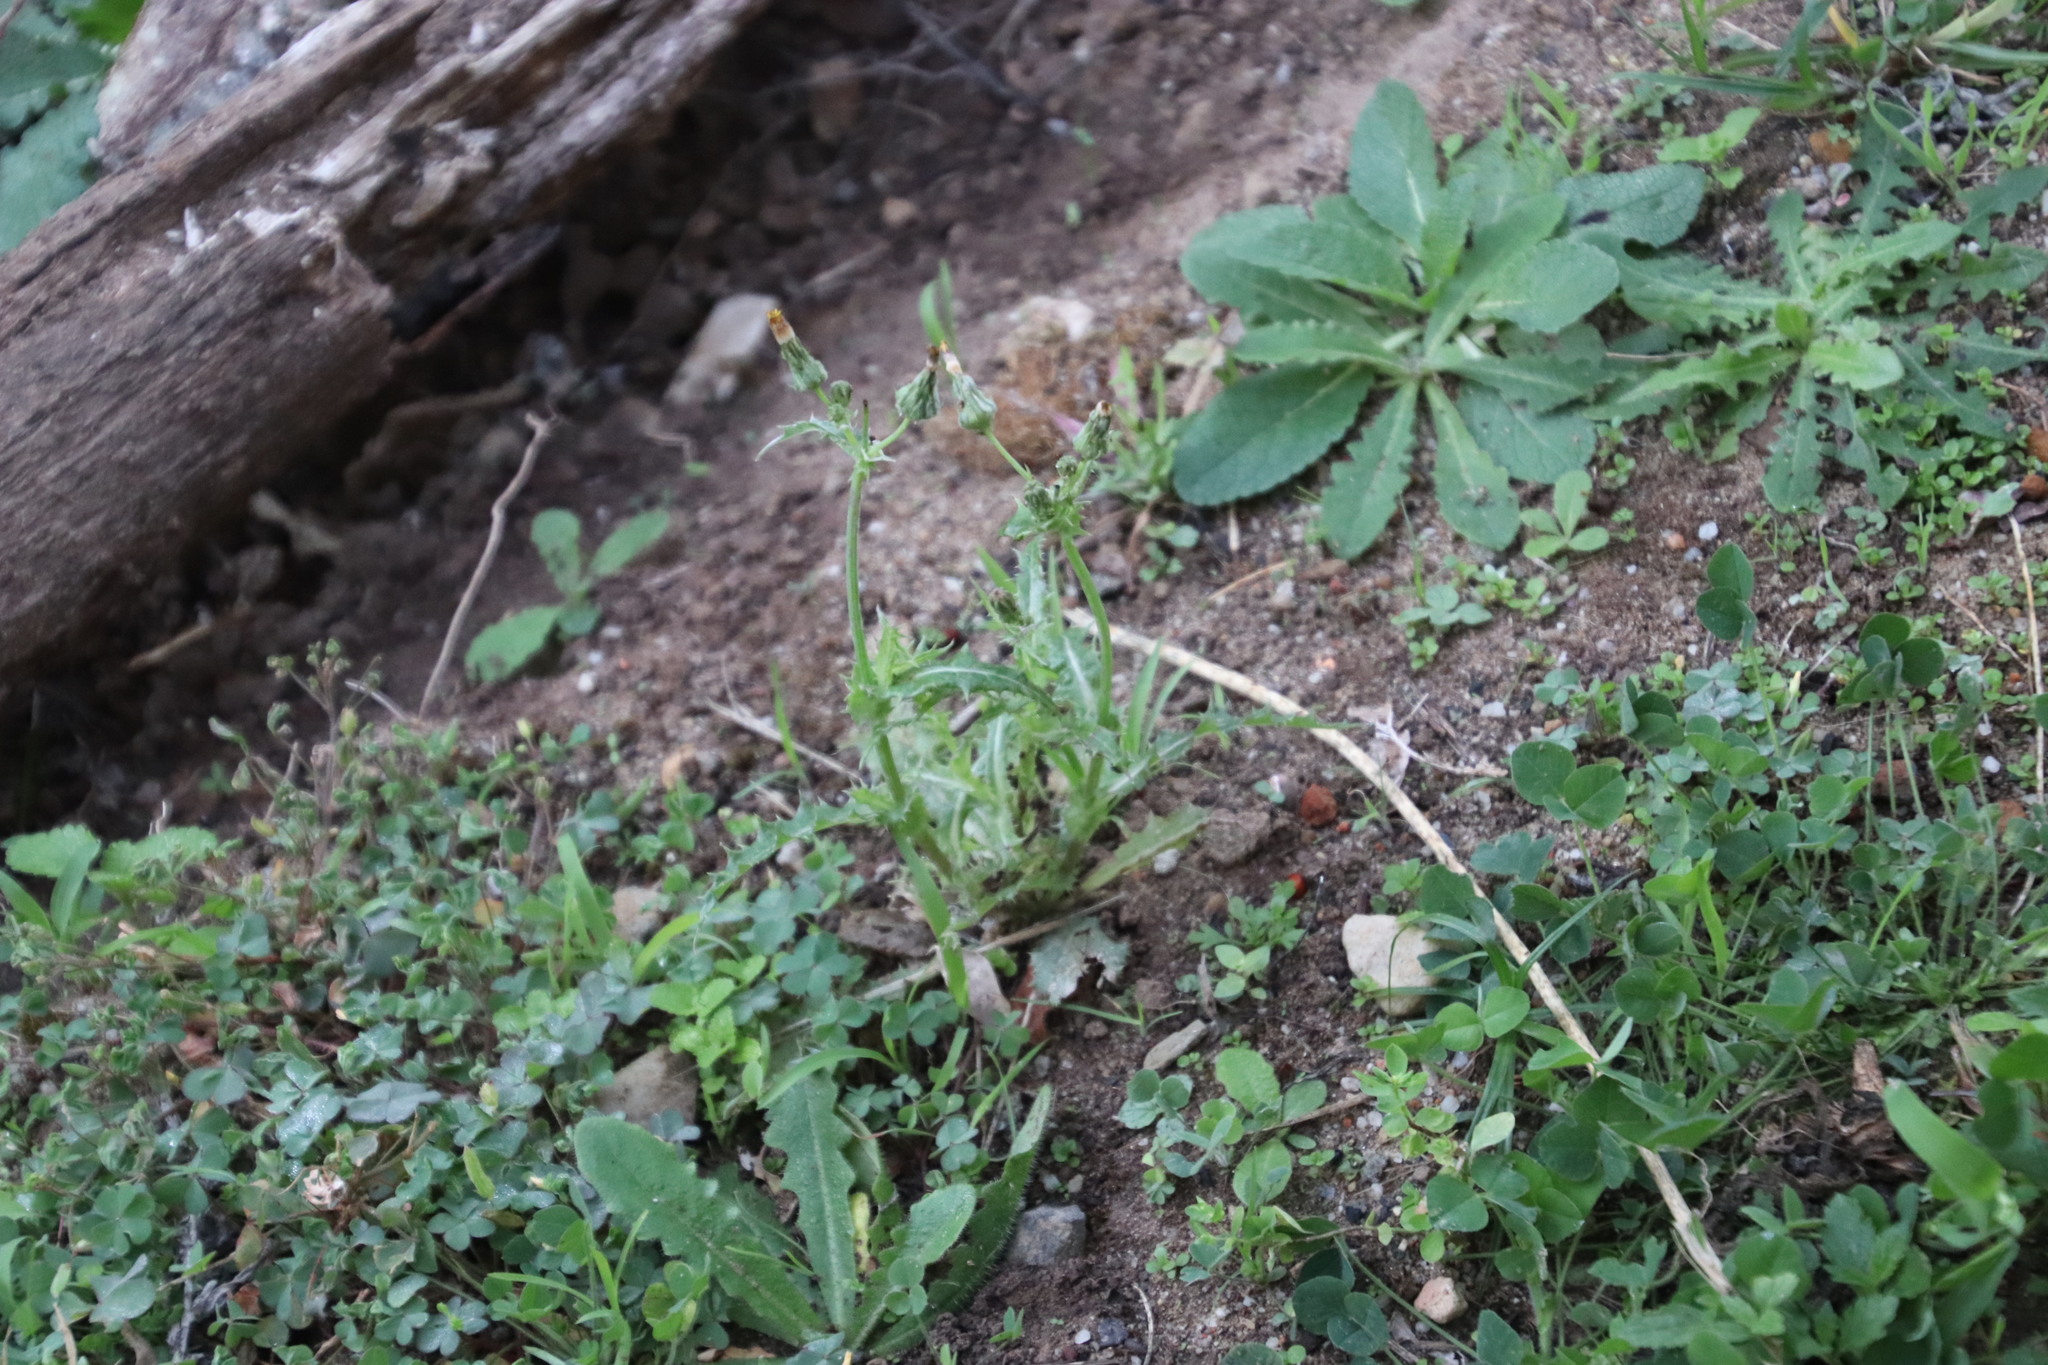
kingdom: Plantae
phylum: Tracheophyta
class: Magnoliopsida
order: Asterales
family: Asteraceae
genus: Sonchus
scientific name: Sonchus asper
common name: Prickly sow-thistle
